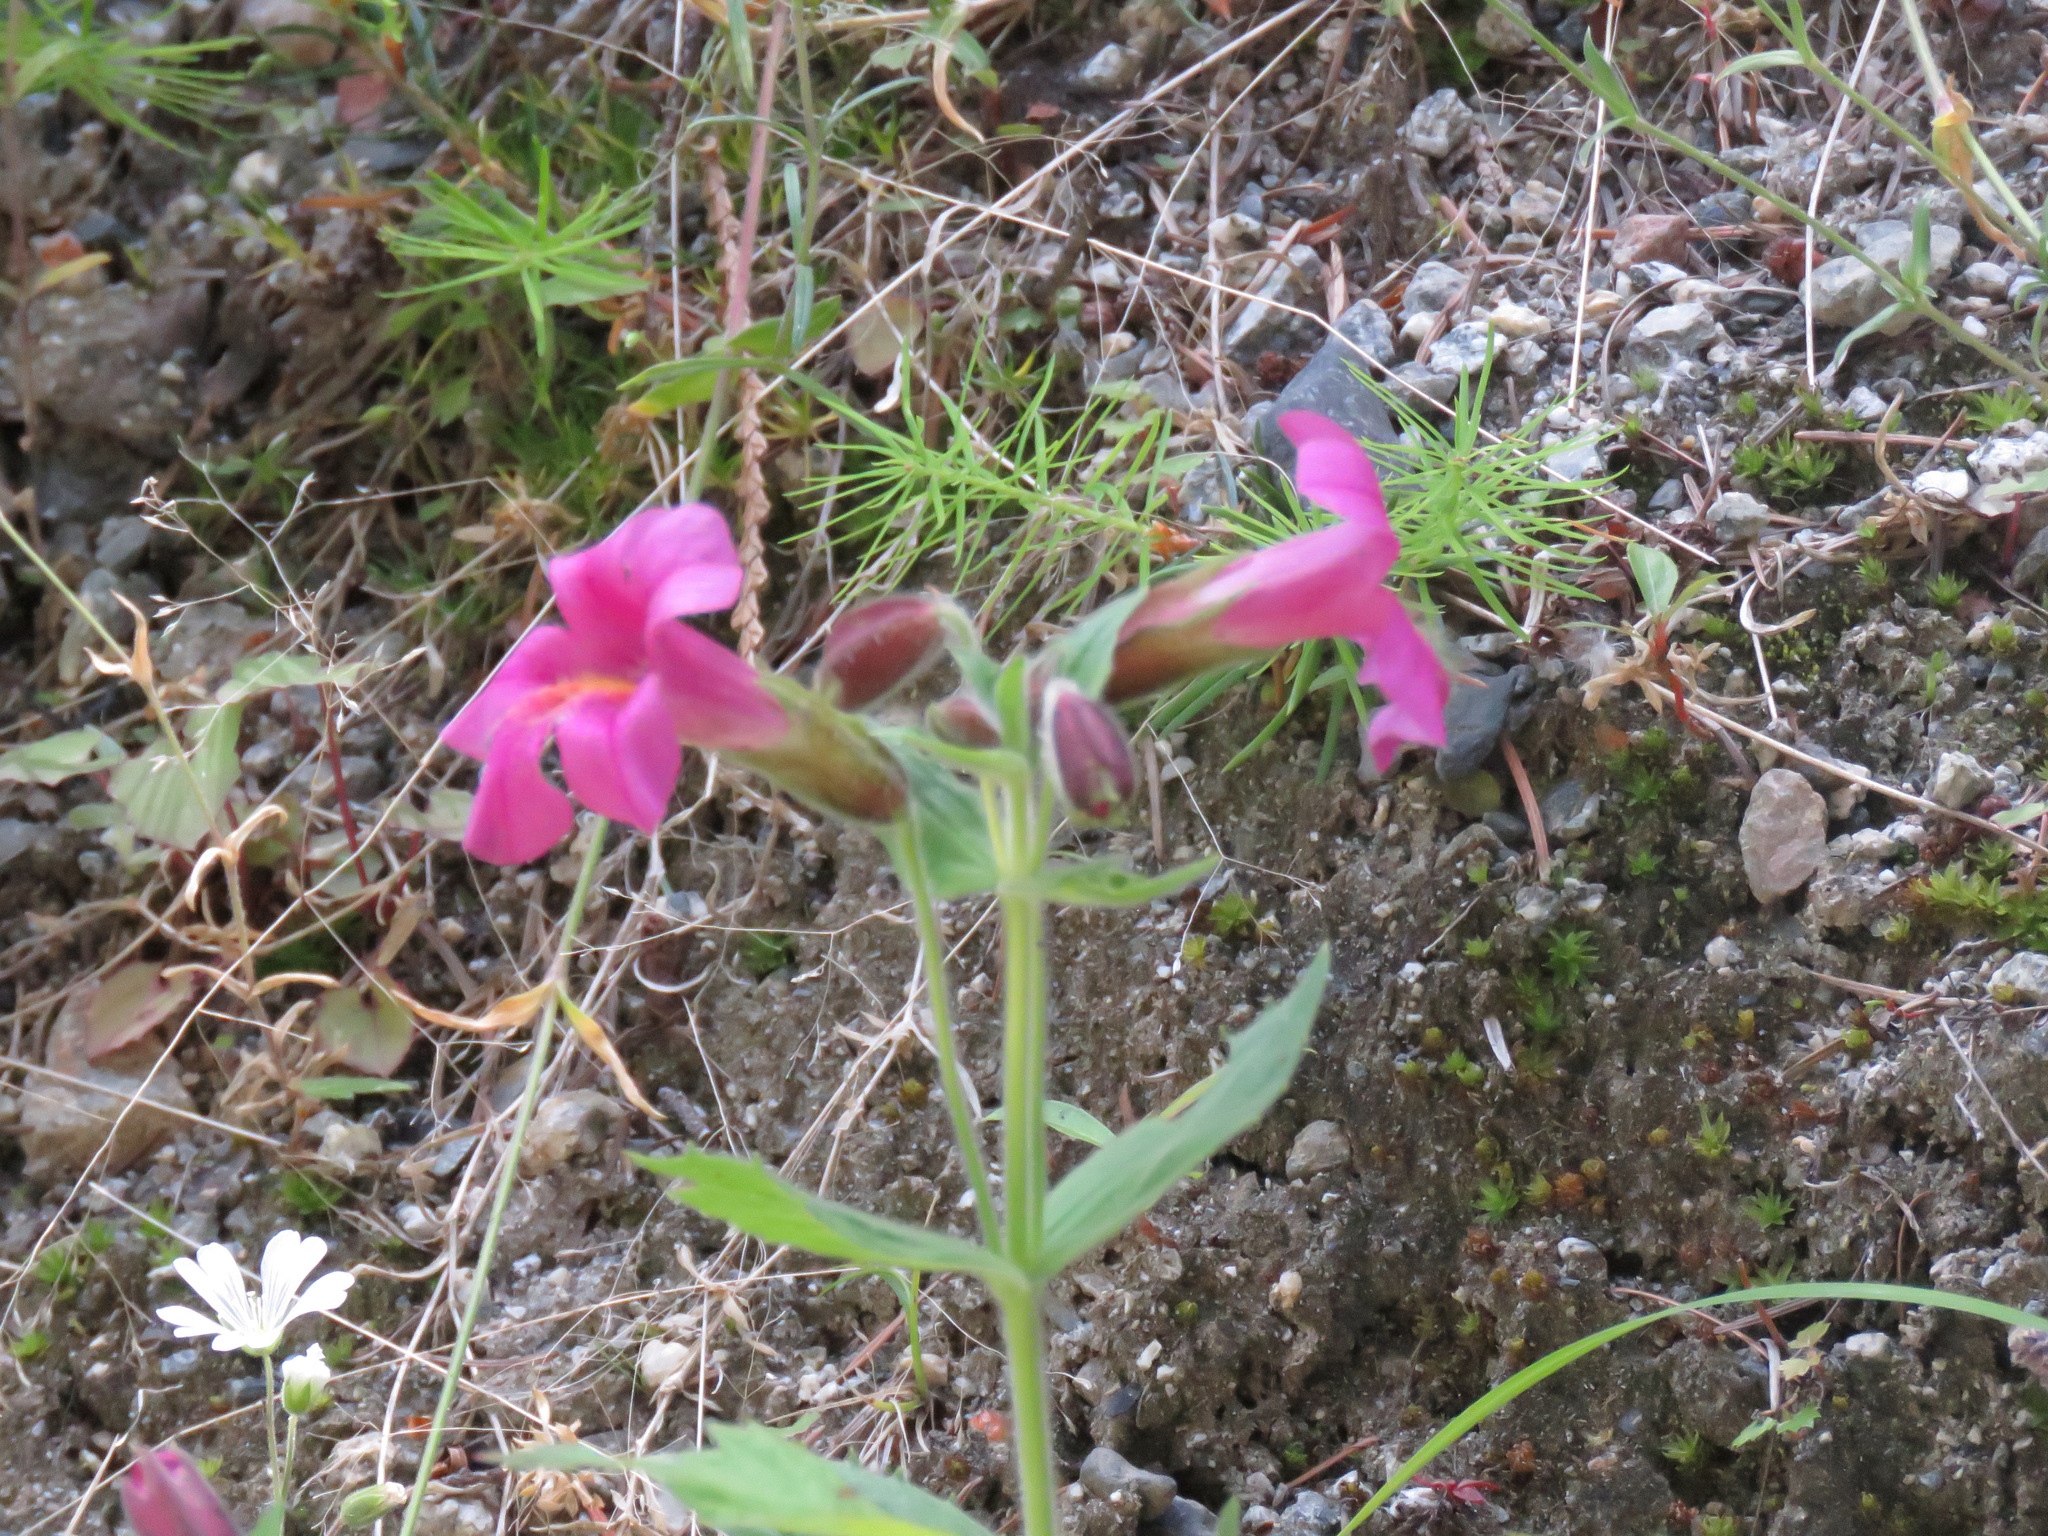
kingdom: Plantae
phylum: Tracheophyta
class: Magnoliopsida
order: Lamiales
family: Phrymaceae
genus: Erythranthe
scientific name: Erythranthe lewisii
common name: Lewis's monkey-flower
